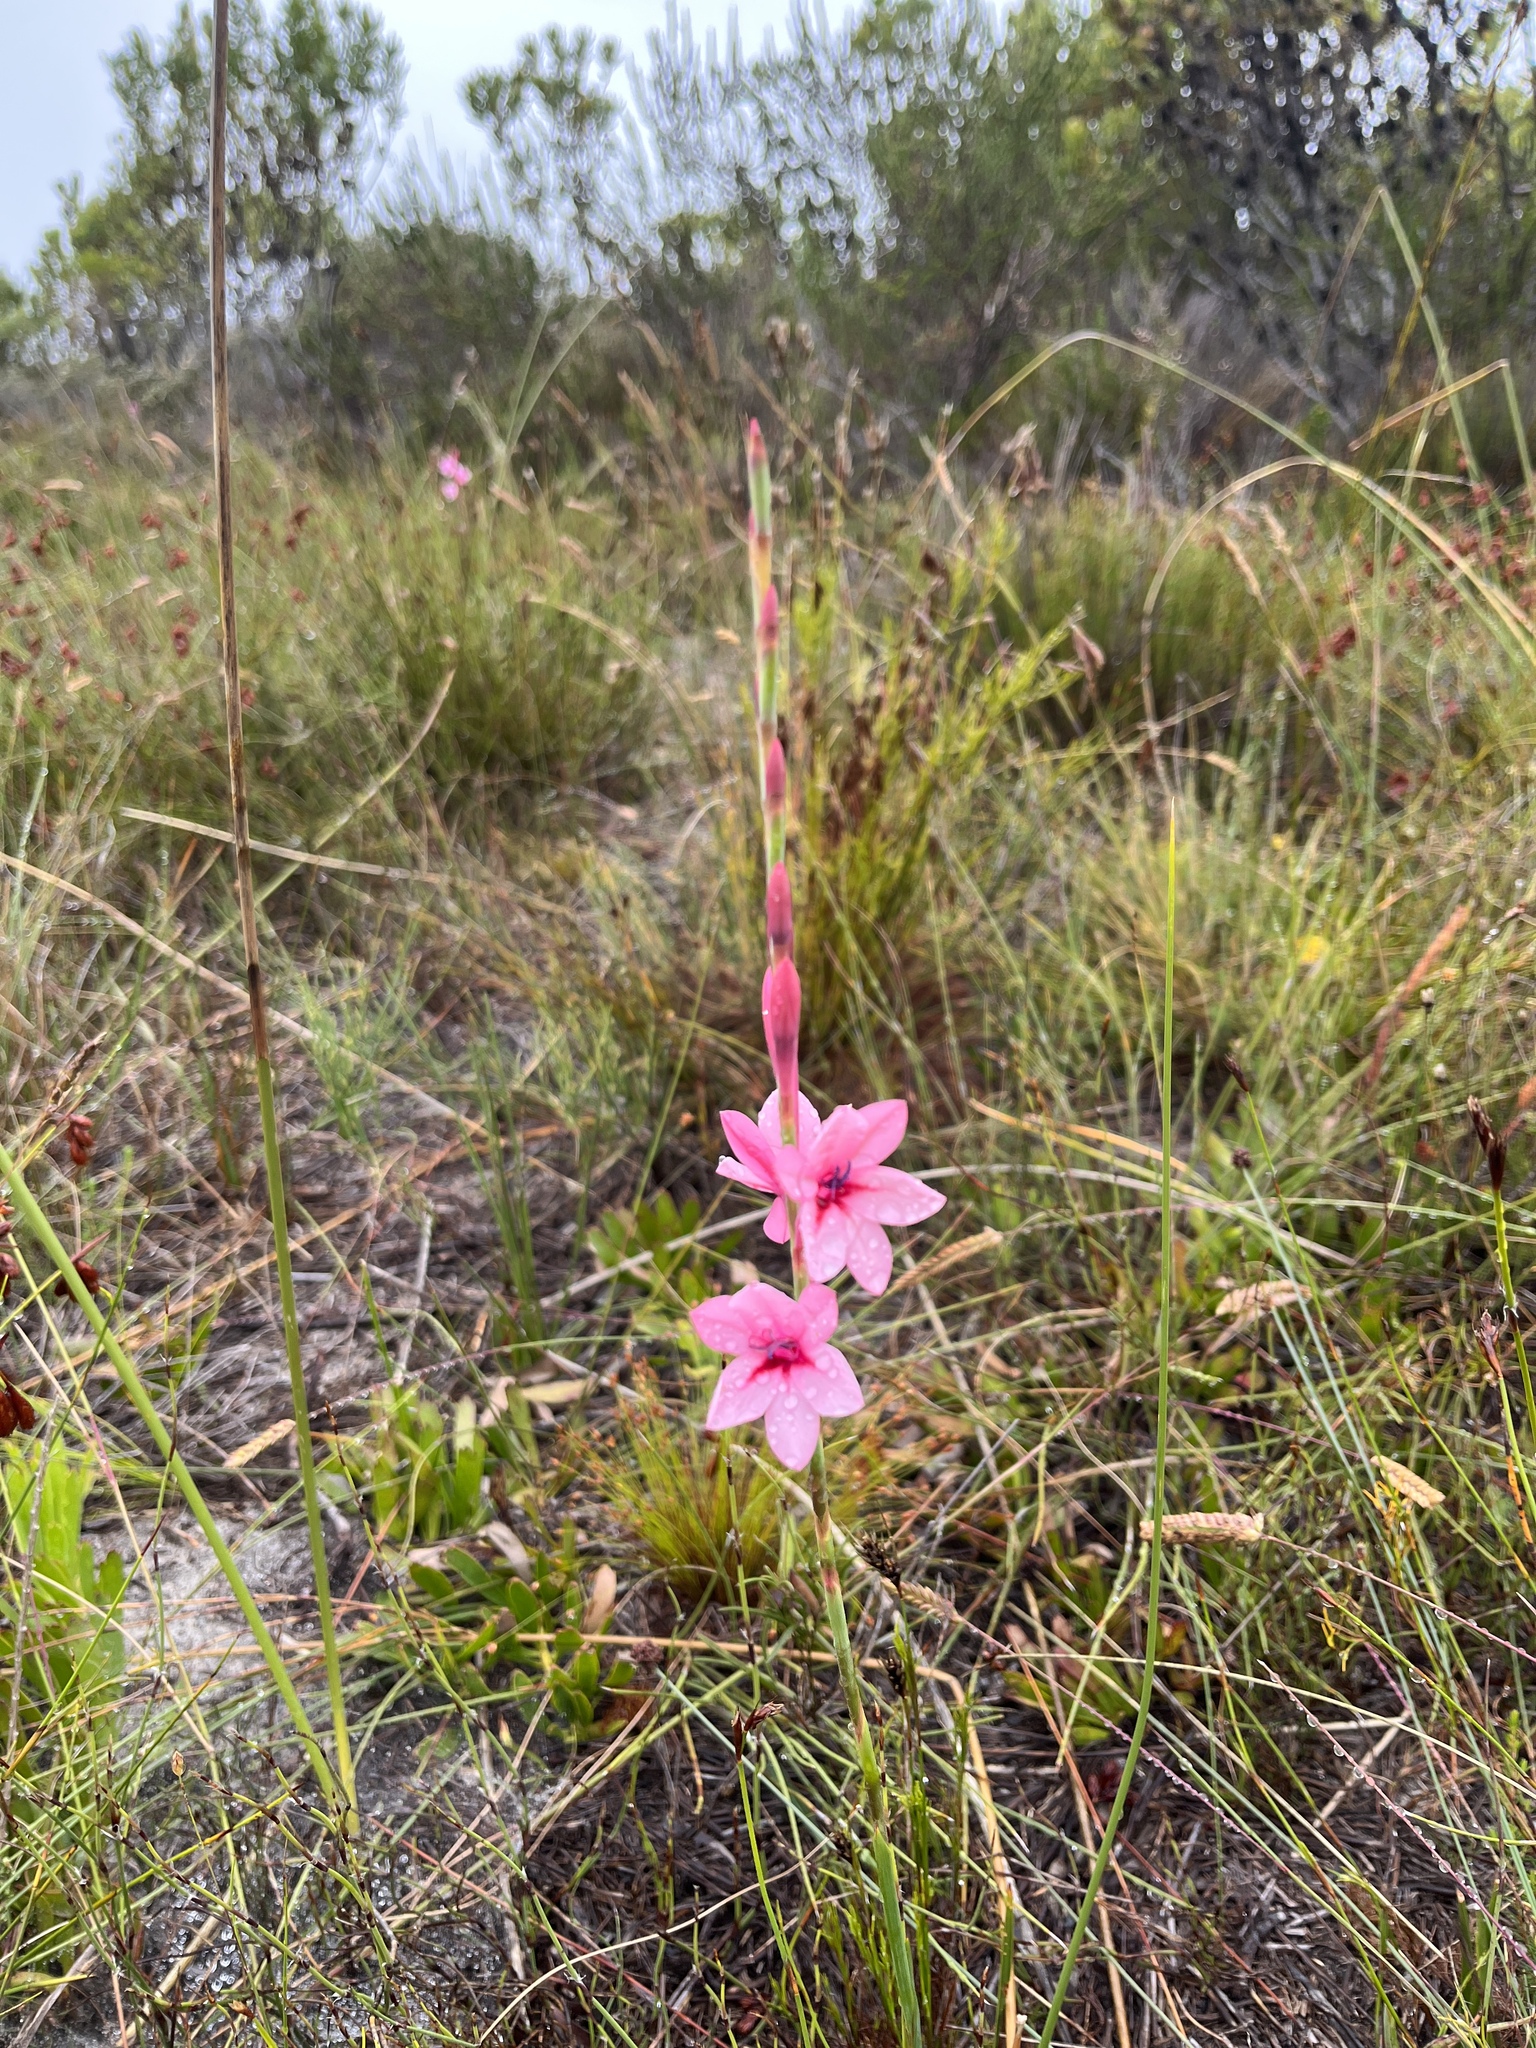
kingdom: Plantae
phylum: Tracheophyta
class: Liliopsida
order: Asparagales
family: Iridaceae
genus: Watsonia
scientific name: Watsonia coccinea
